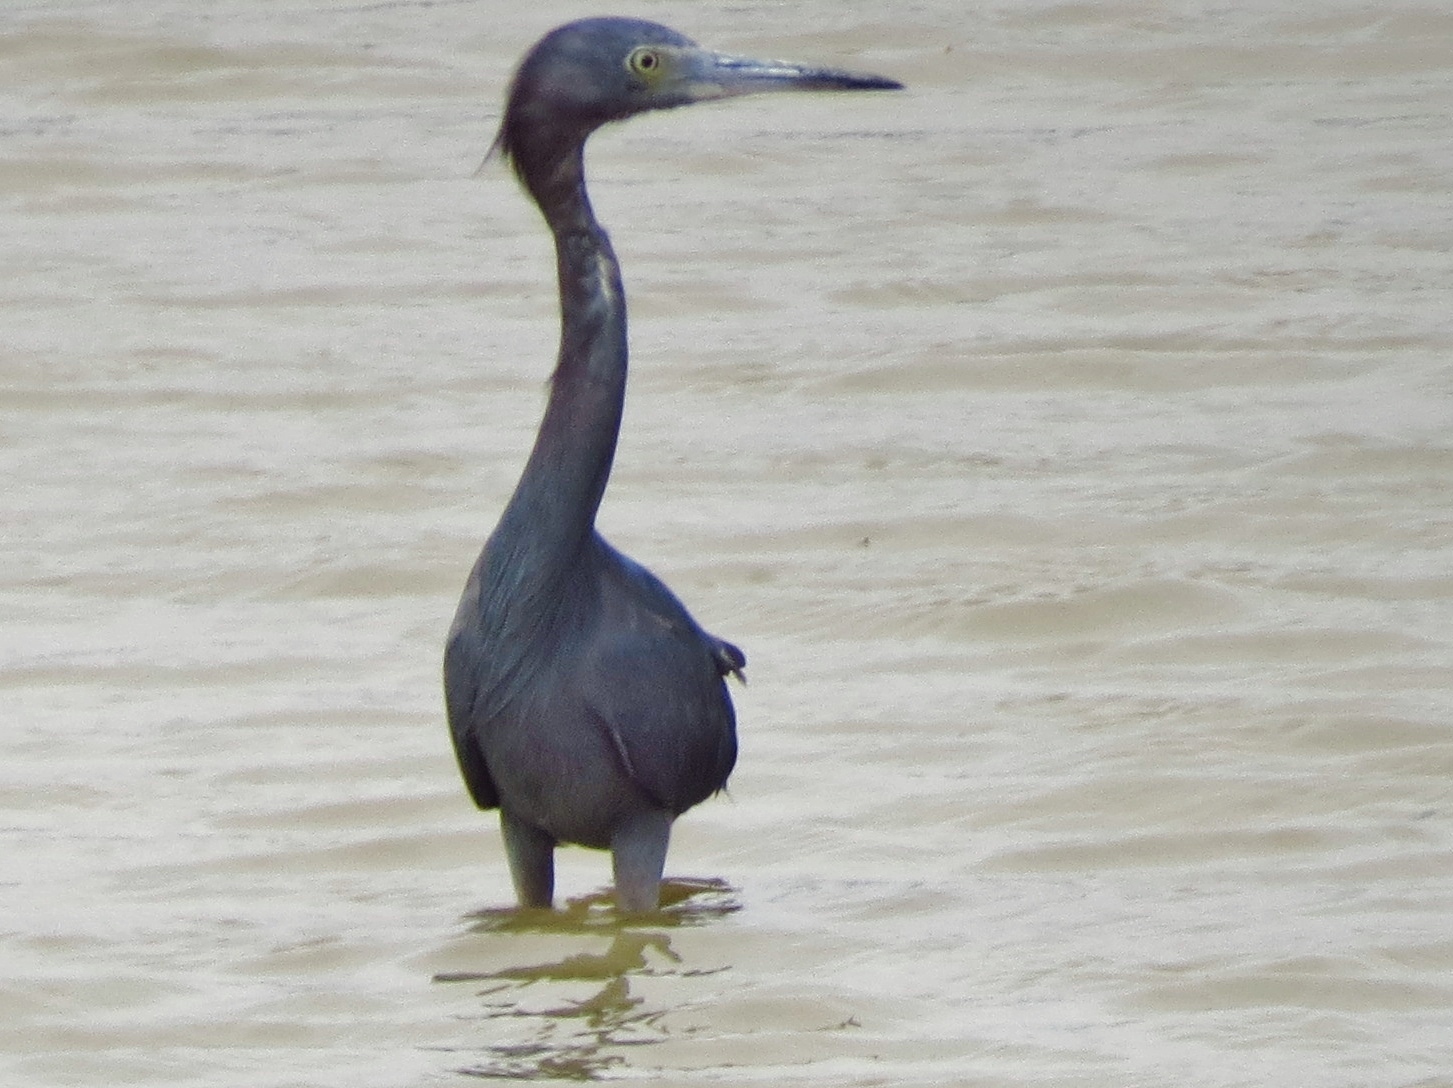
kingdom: Animalia
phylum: Chordata
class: Aves
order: Pelecaniformes
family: Ardeidae
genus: Egretta
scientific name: Egretta caerulea
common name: Little blue heron
